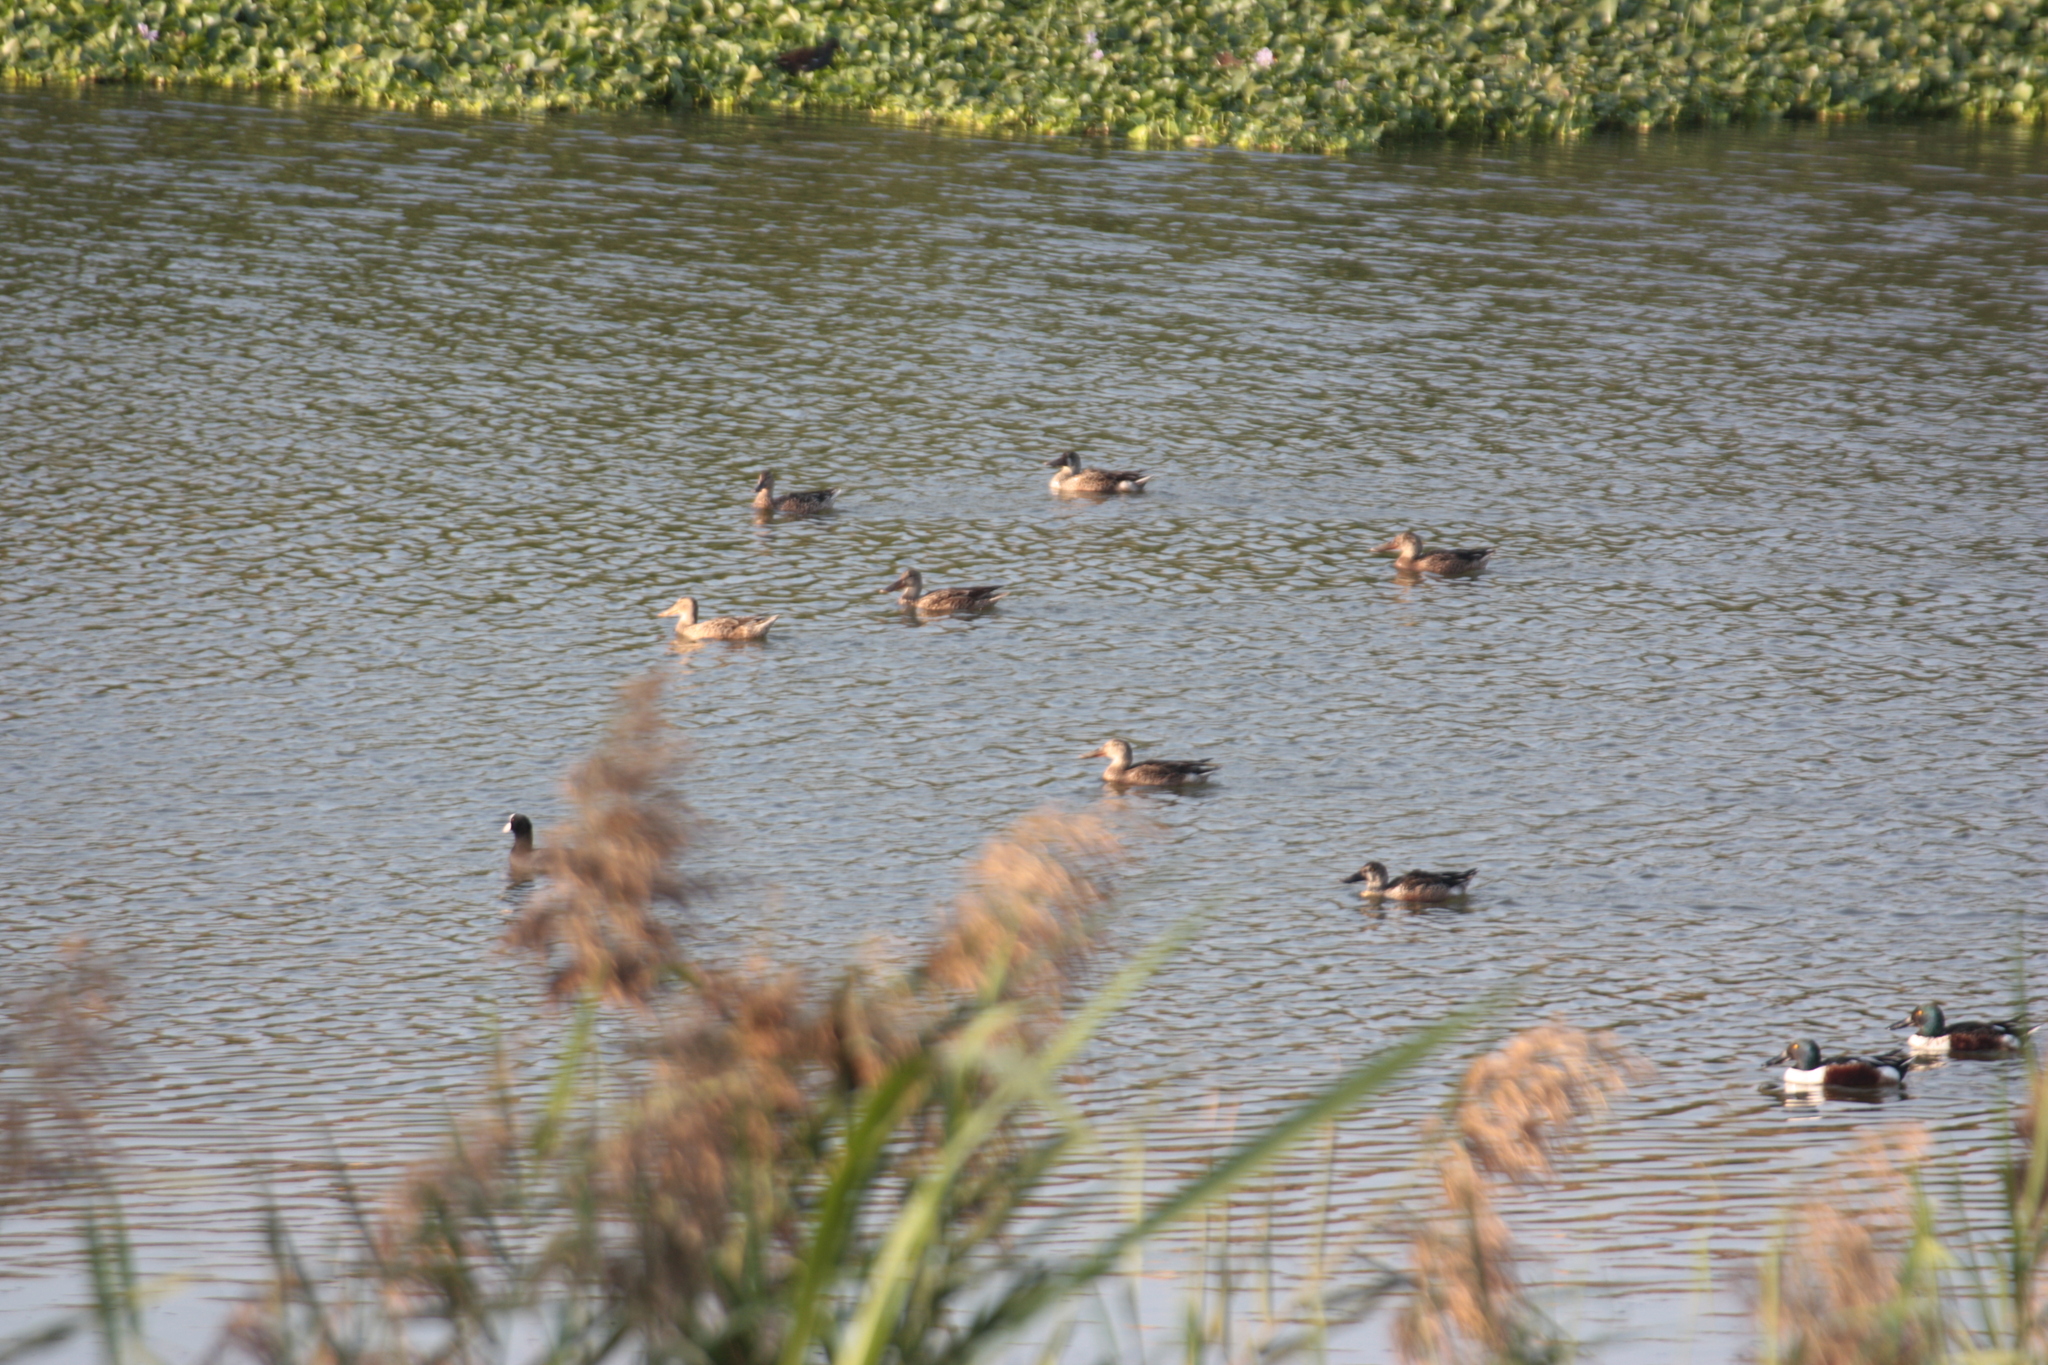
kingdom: Animalia
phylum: Chordata
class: Aves
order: Anseriformes
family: Anatidae
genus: Spatula
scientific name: Spatula clypeata
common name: Northern shoveler
